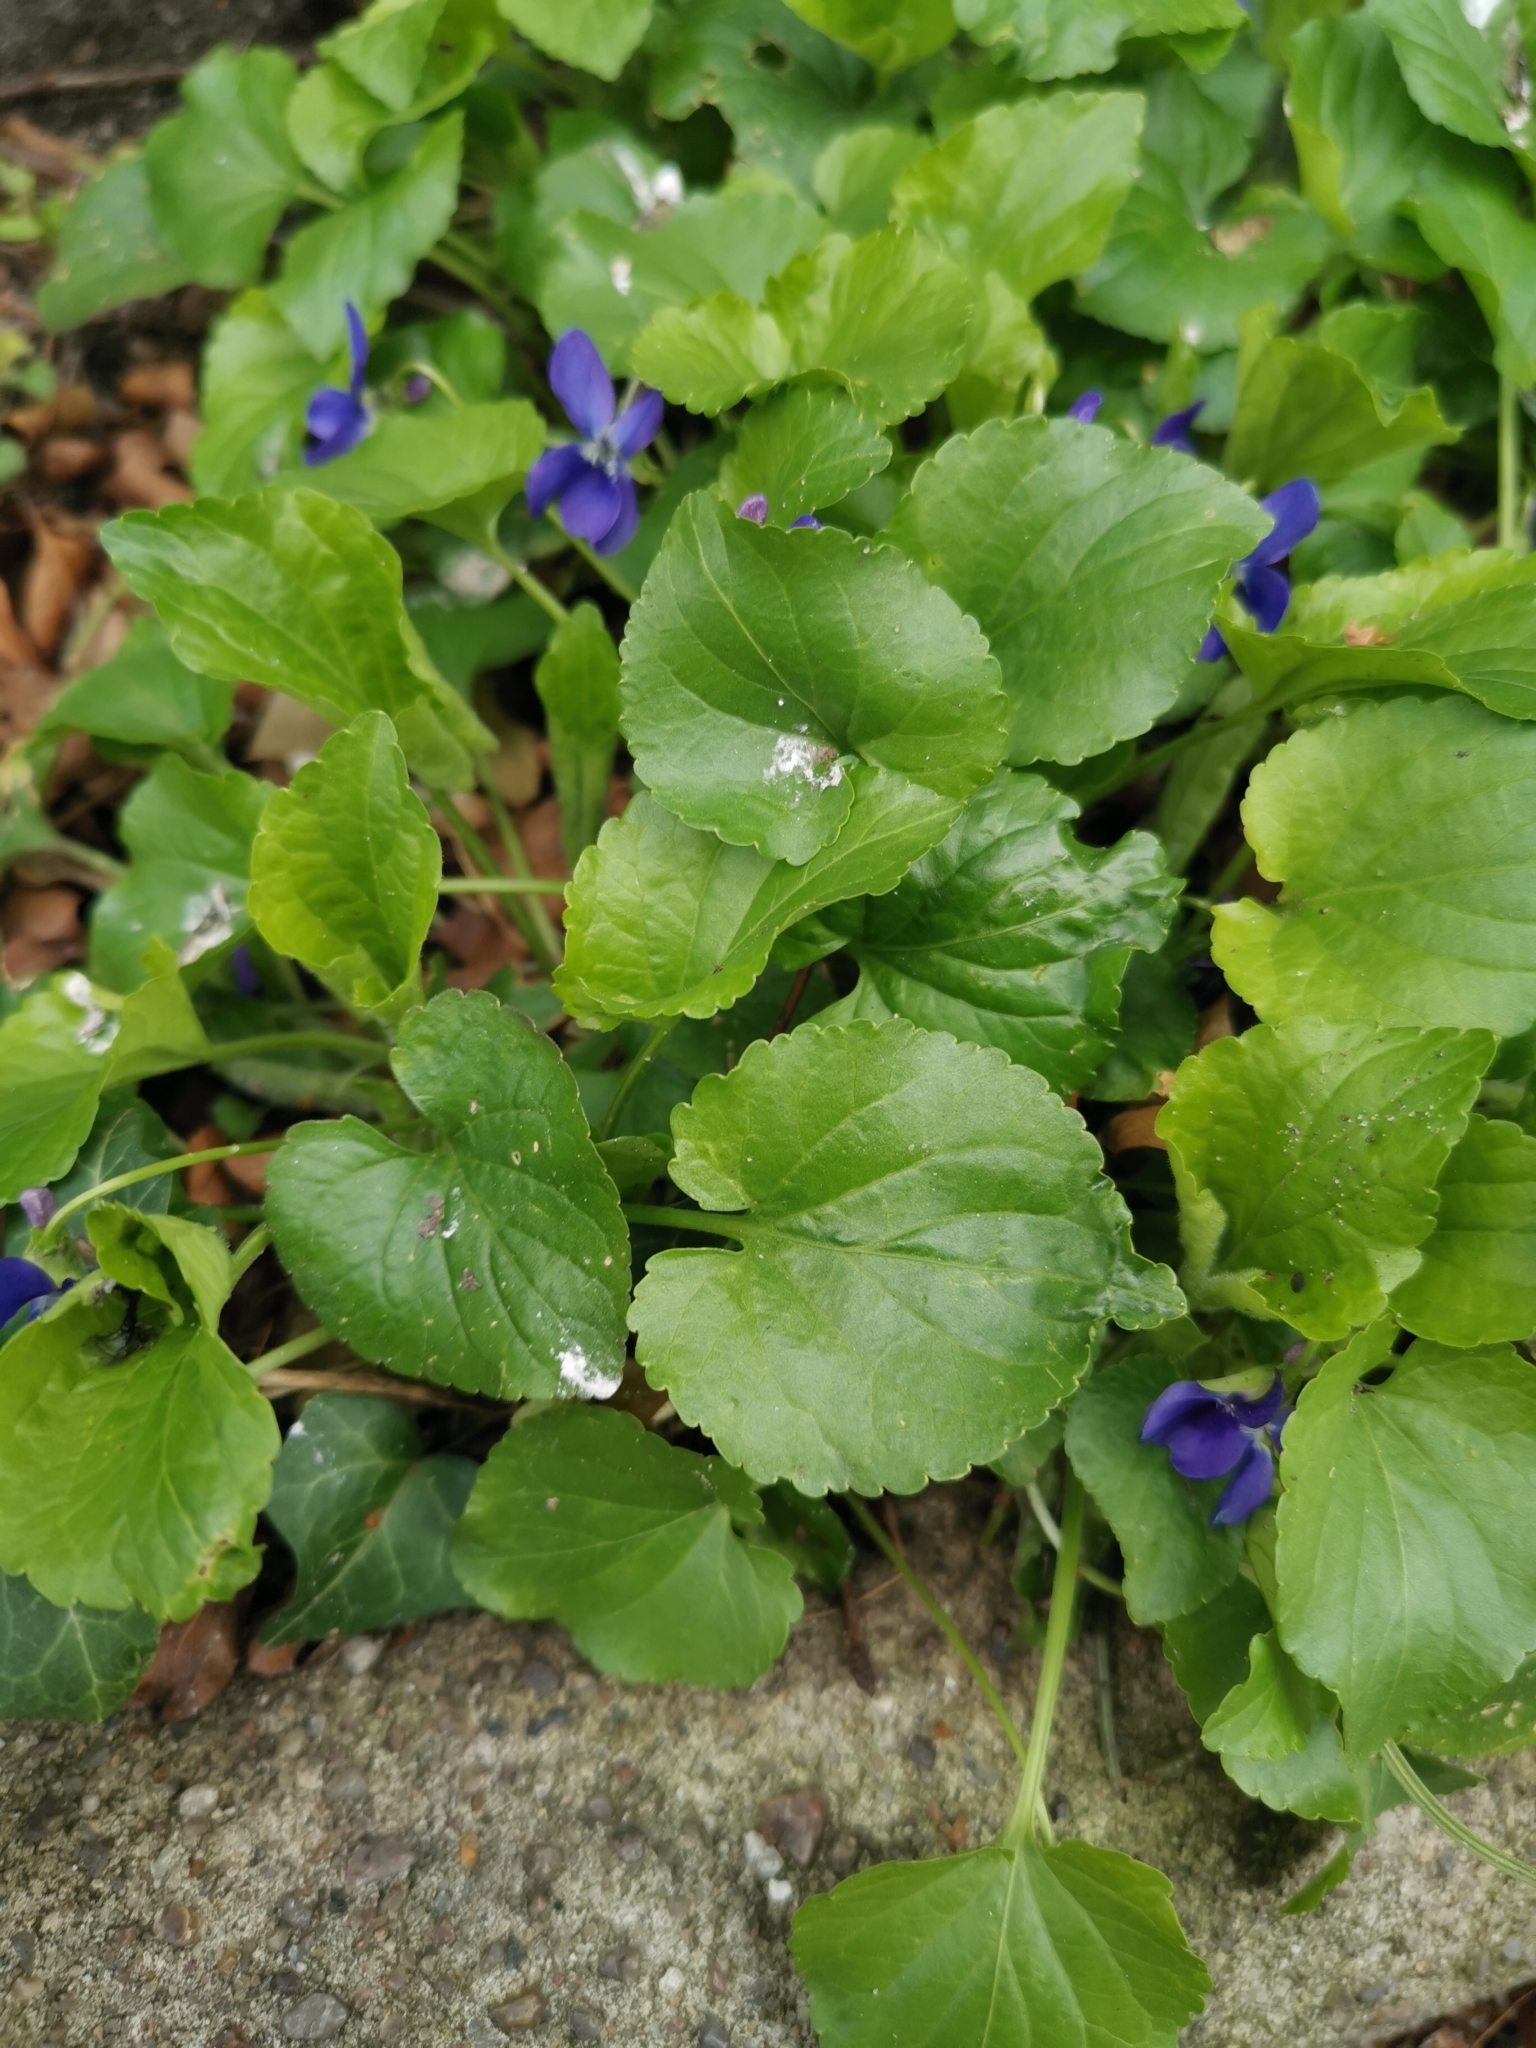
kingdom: Plantae
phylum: Tracheophyta
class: Magnoliopsida
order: Malpighiales
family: Violaceae
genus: Viola
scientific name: Viola odorata
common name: Sweet violet
